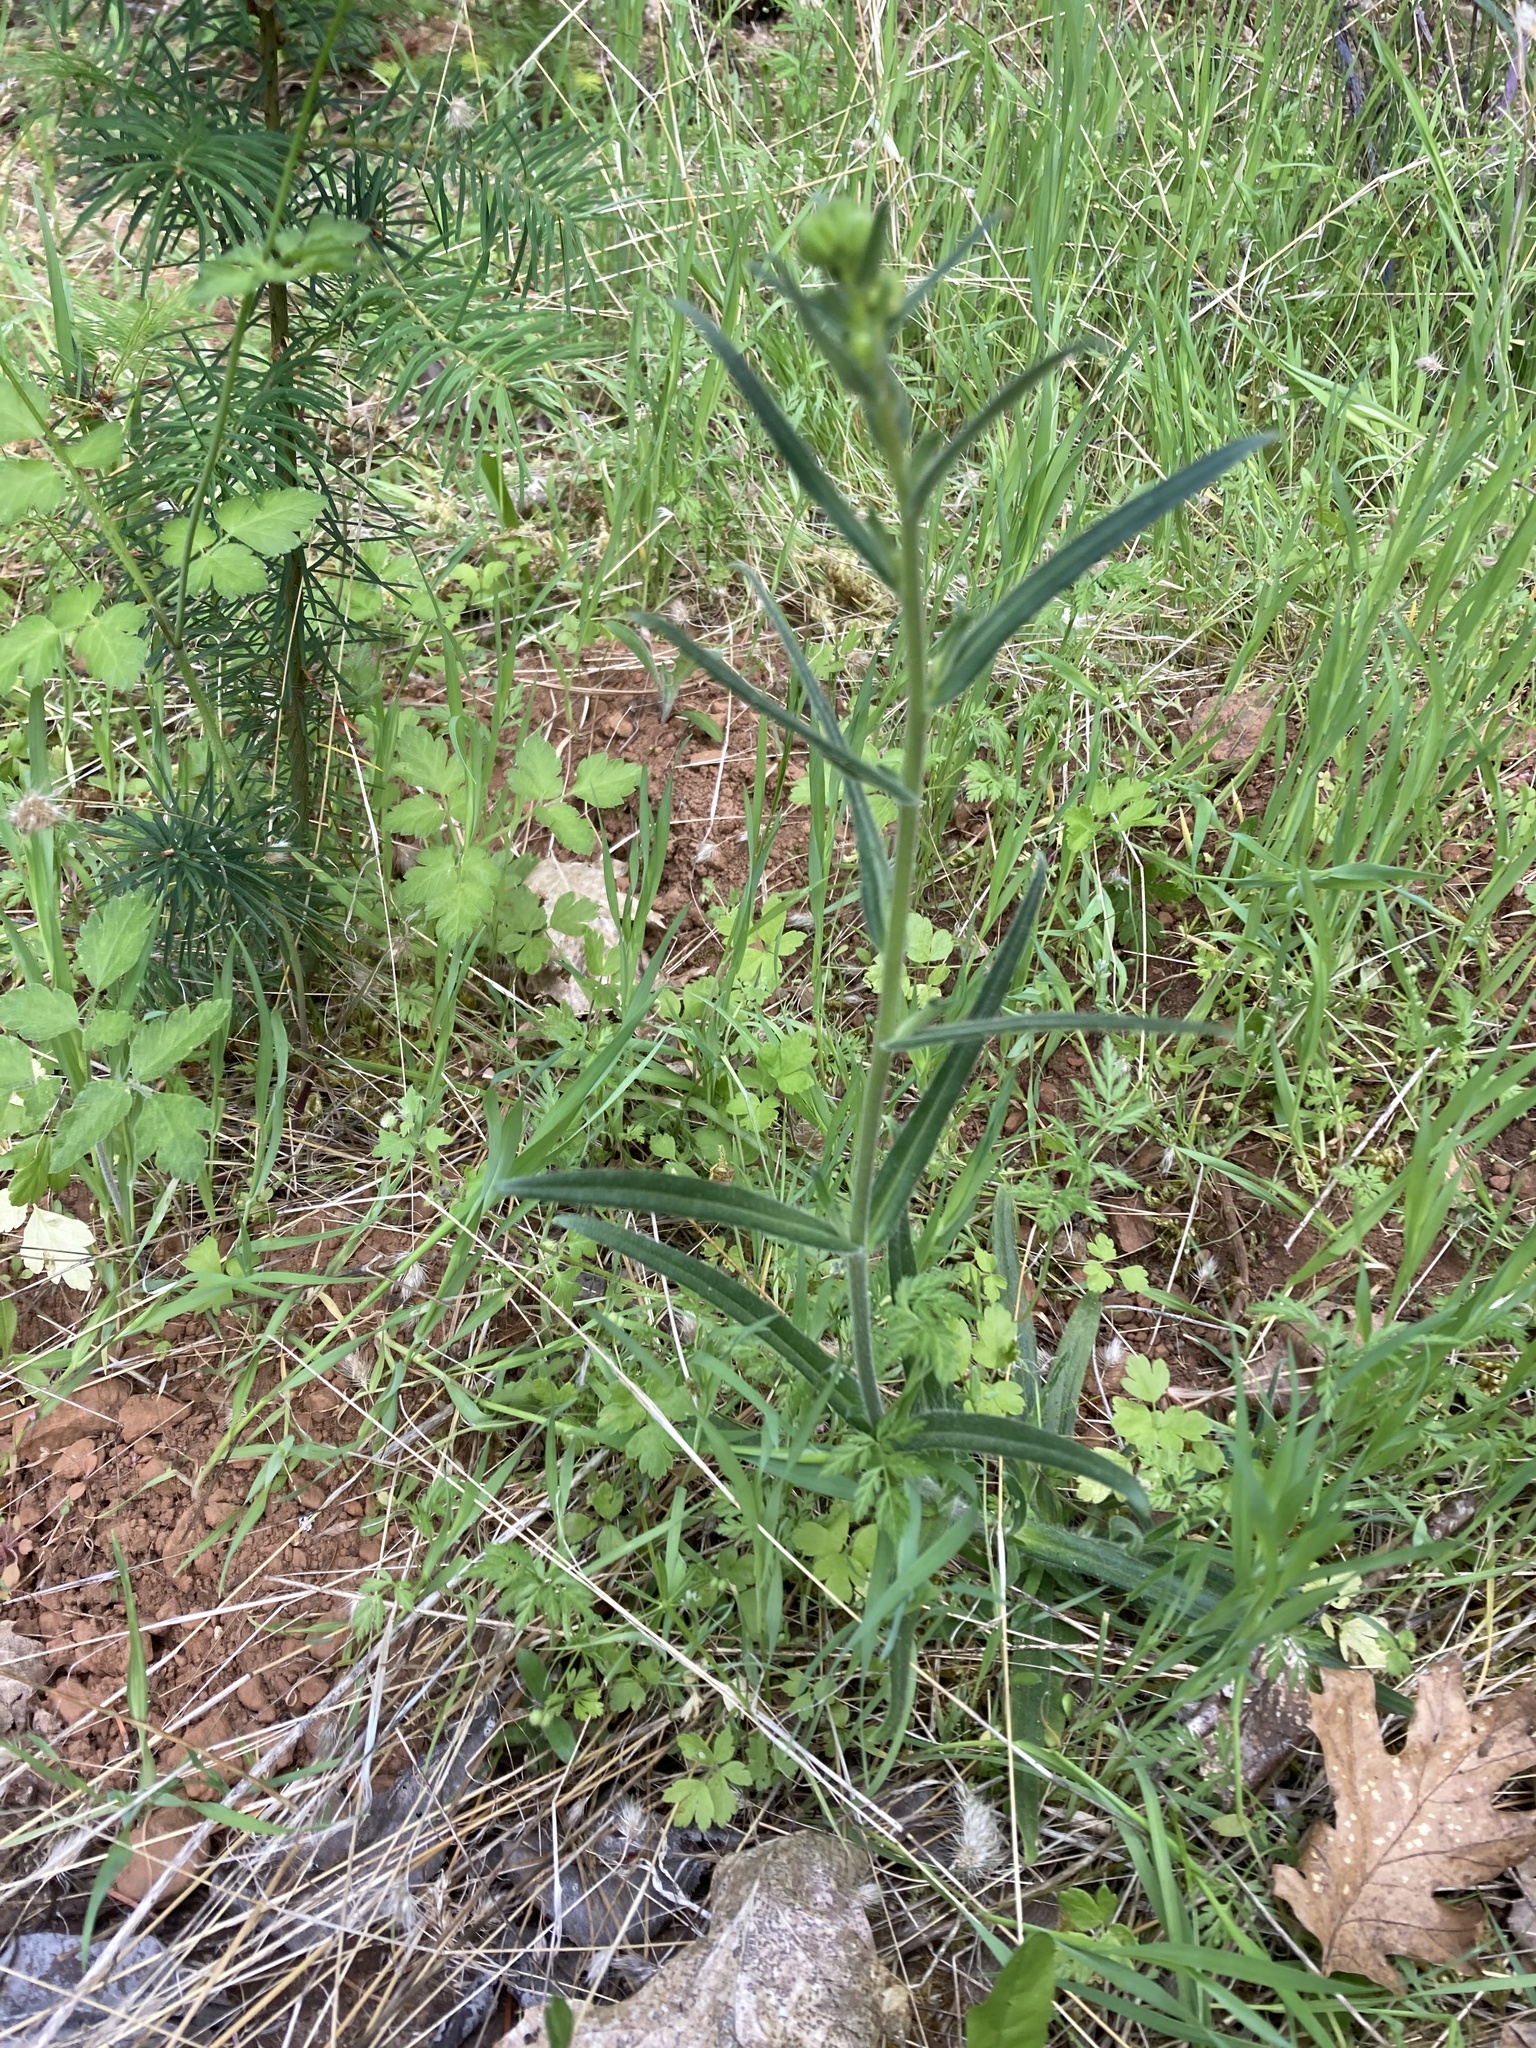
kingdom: Plantae
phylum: Tracheophyta
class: Magnoliopsida
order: Asterales
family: Asteraceae
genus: Anisocarpus
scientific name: Anisocarpus madioides
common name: Woodland madia
